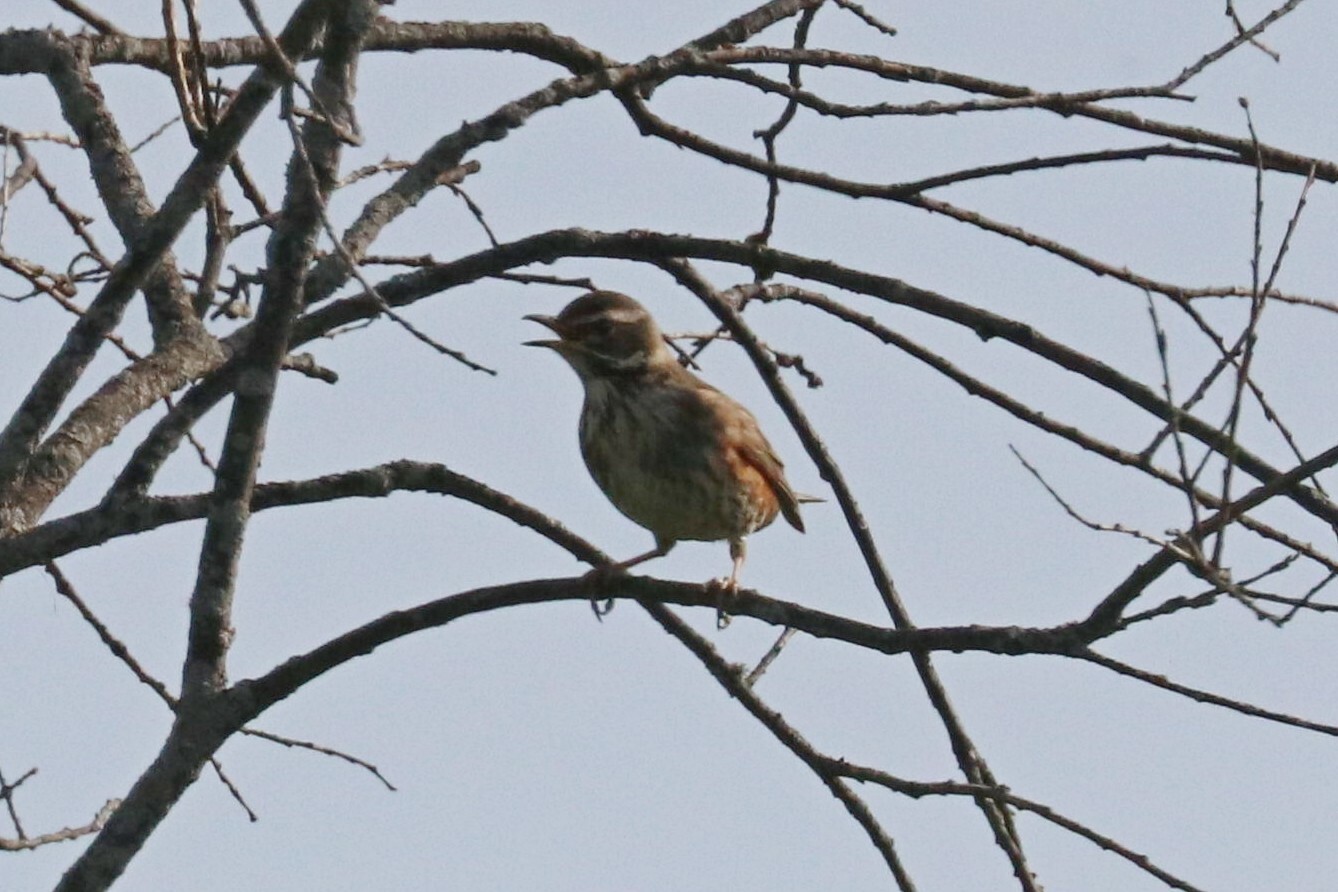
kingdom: Animalia
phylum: Chordata
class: Aves
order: Passeriformes
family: Turdidae
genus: Turdus
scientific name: Turdus iliacus
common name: Redwing
